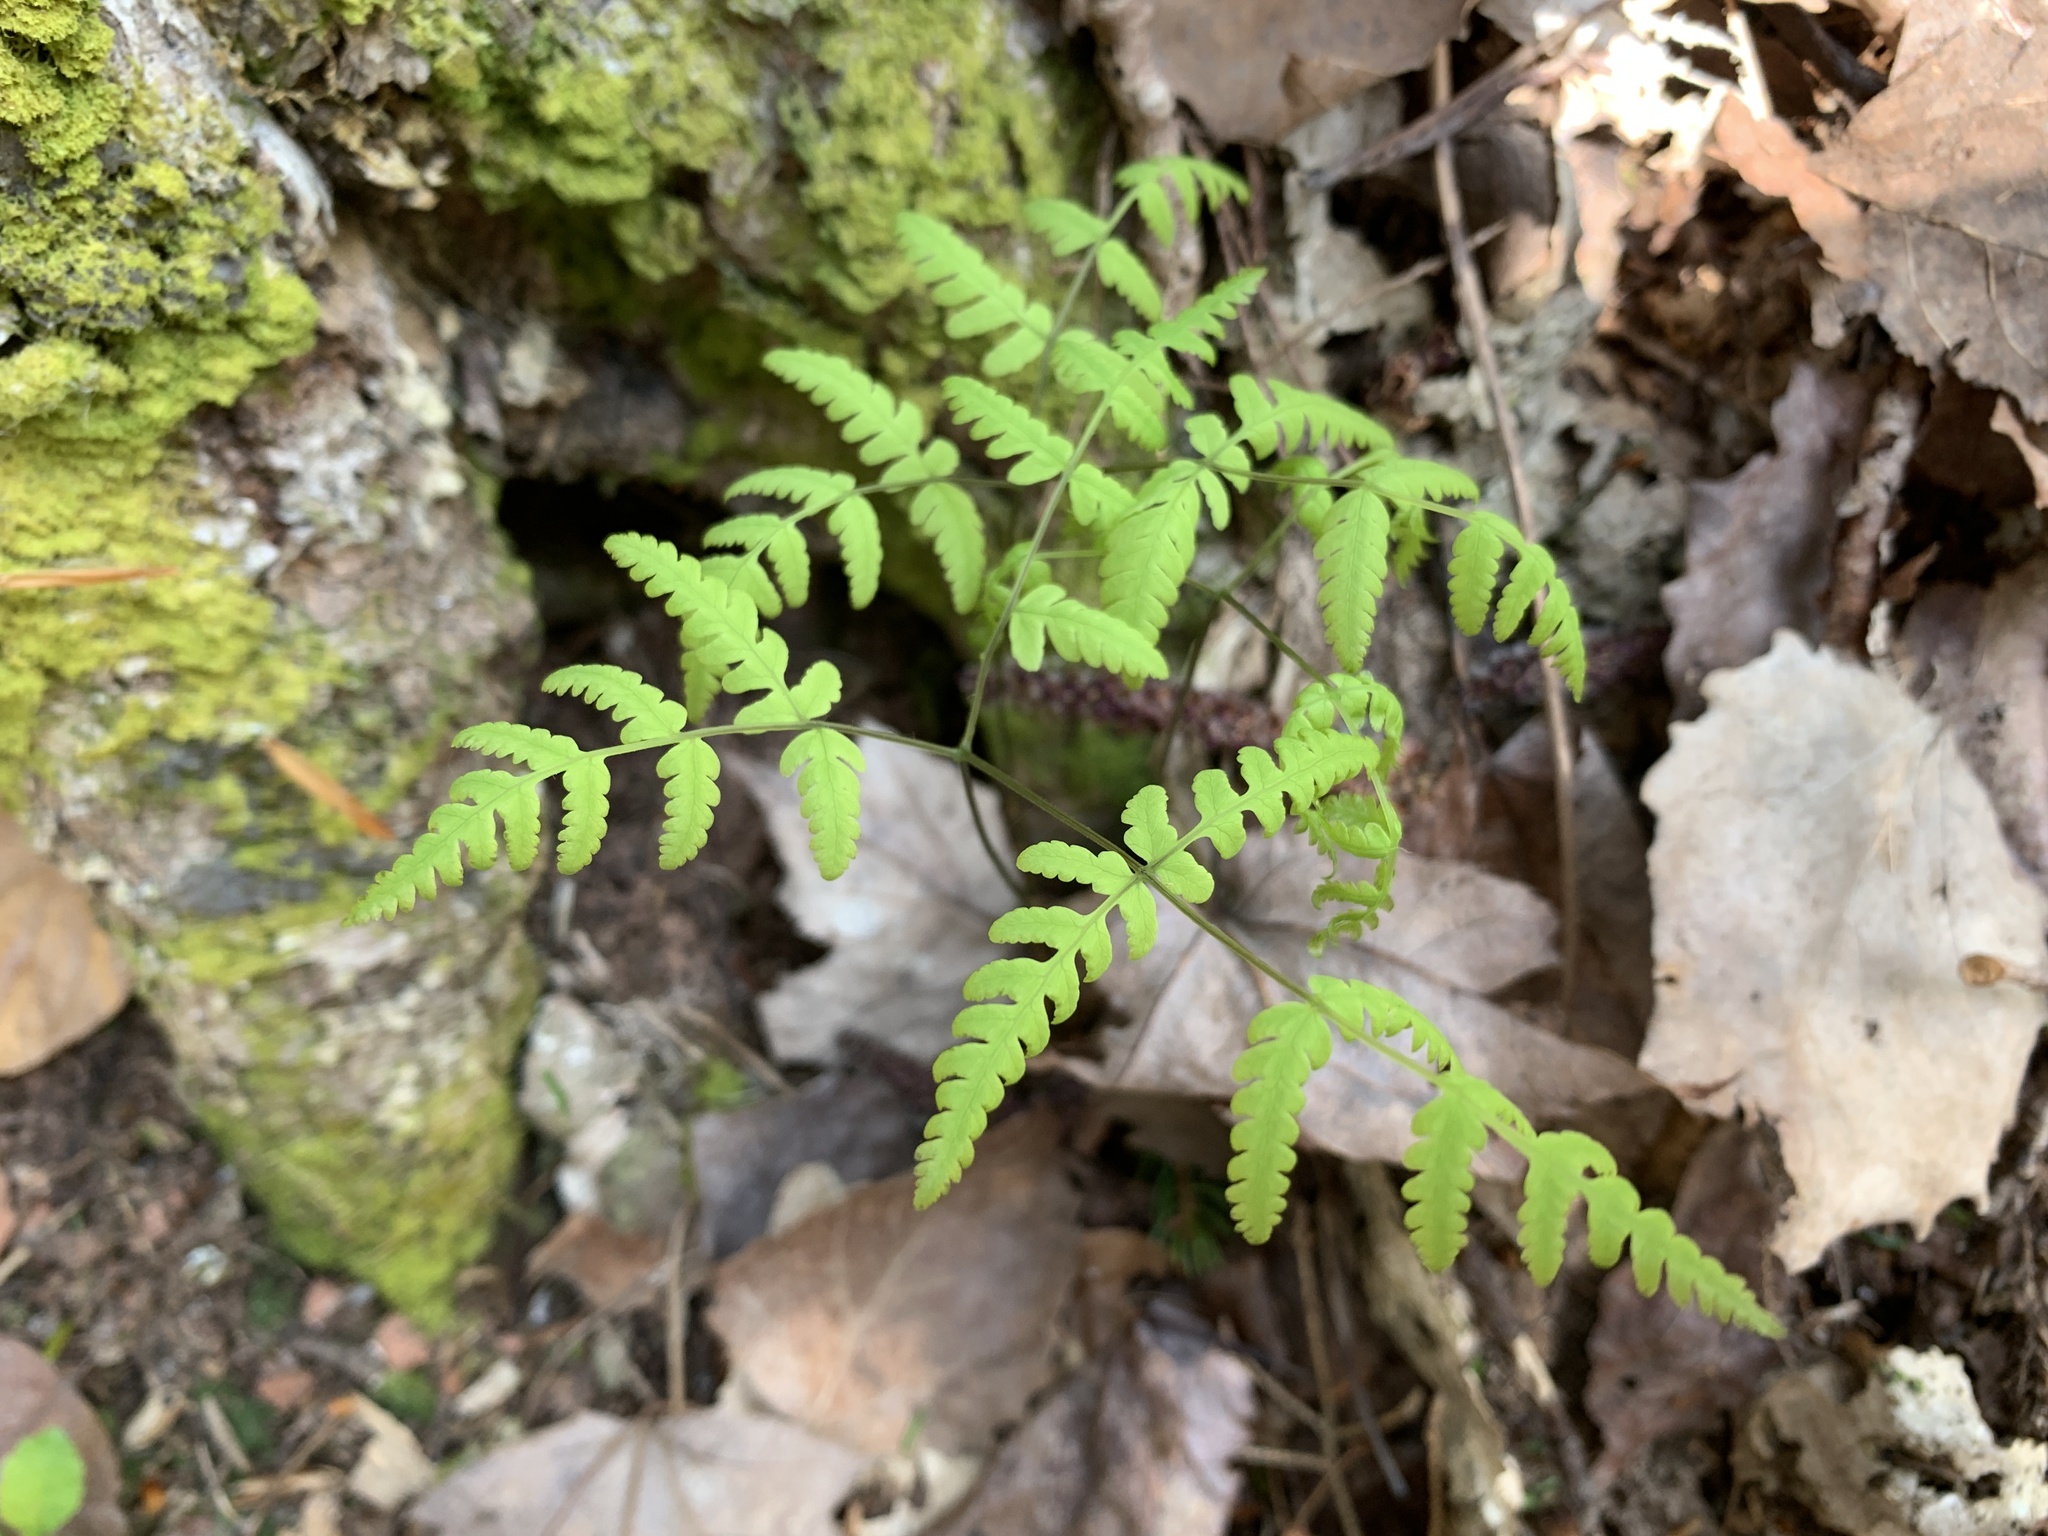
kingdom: Plantae
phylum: Tracheophyta
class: Polypodiopsida
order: Polypodiales
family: Cystopteridaceae
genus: Gymnocarpium
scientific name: Gymnocarpium dryopteris
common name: Oak fern
